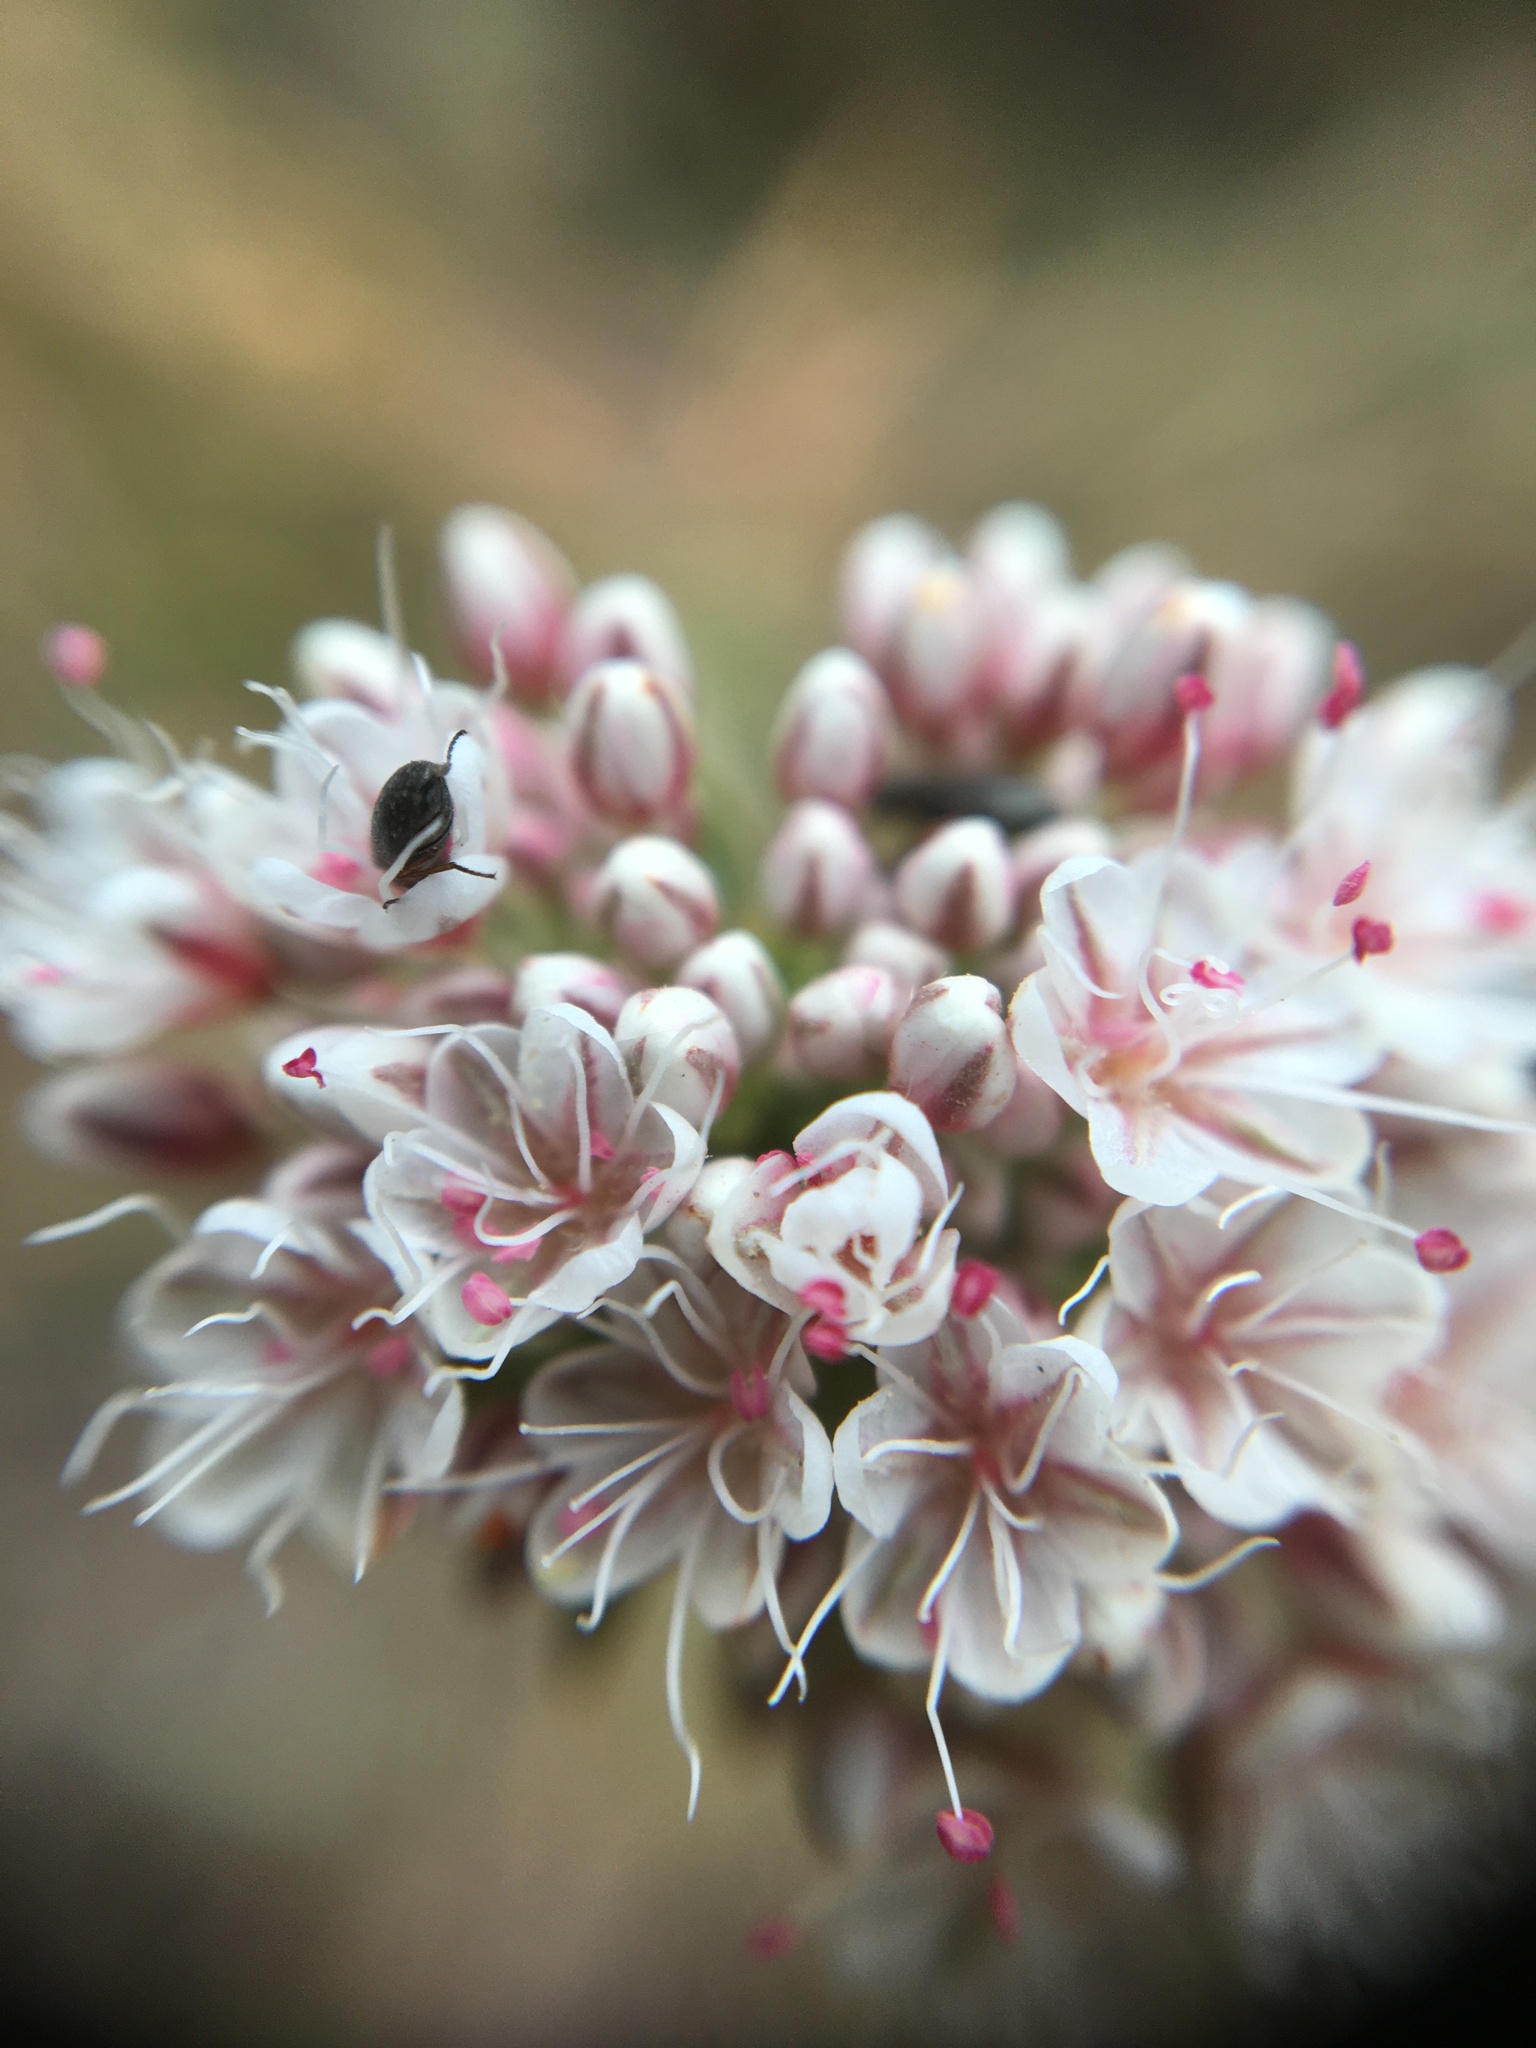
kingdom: Plantae
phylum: Tracheophyta
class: Magnoliopsida
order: Caryophyllales
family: Polygonaceae
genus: Eriogonum
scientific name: Eriogonum fasciculatum
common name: California wild buckwheat
